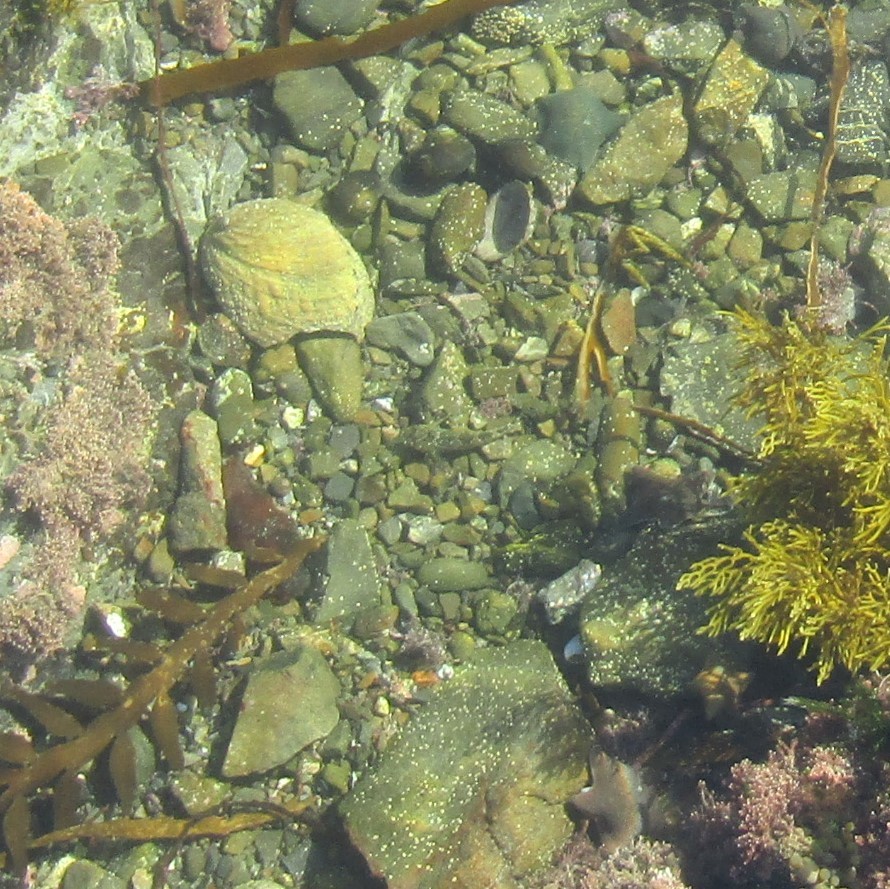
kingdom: Animalia
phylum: Chordata
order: Perciformes
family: Tripterygiidae
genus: Bellapiscis
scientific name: Bellapiscis medius
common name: Twister
